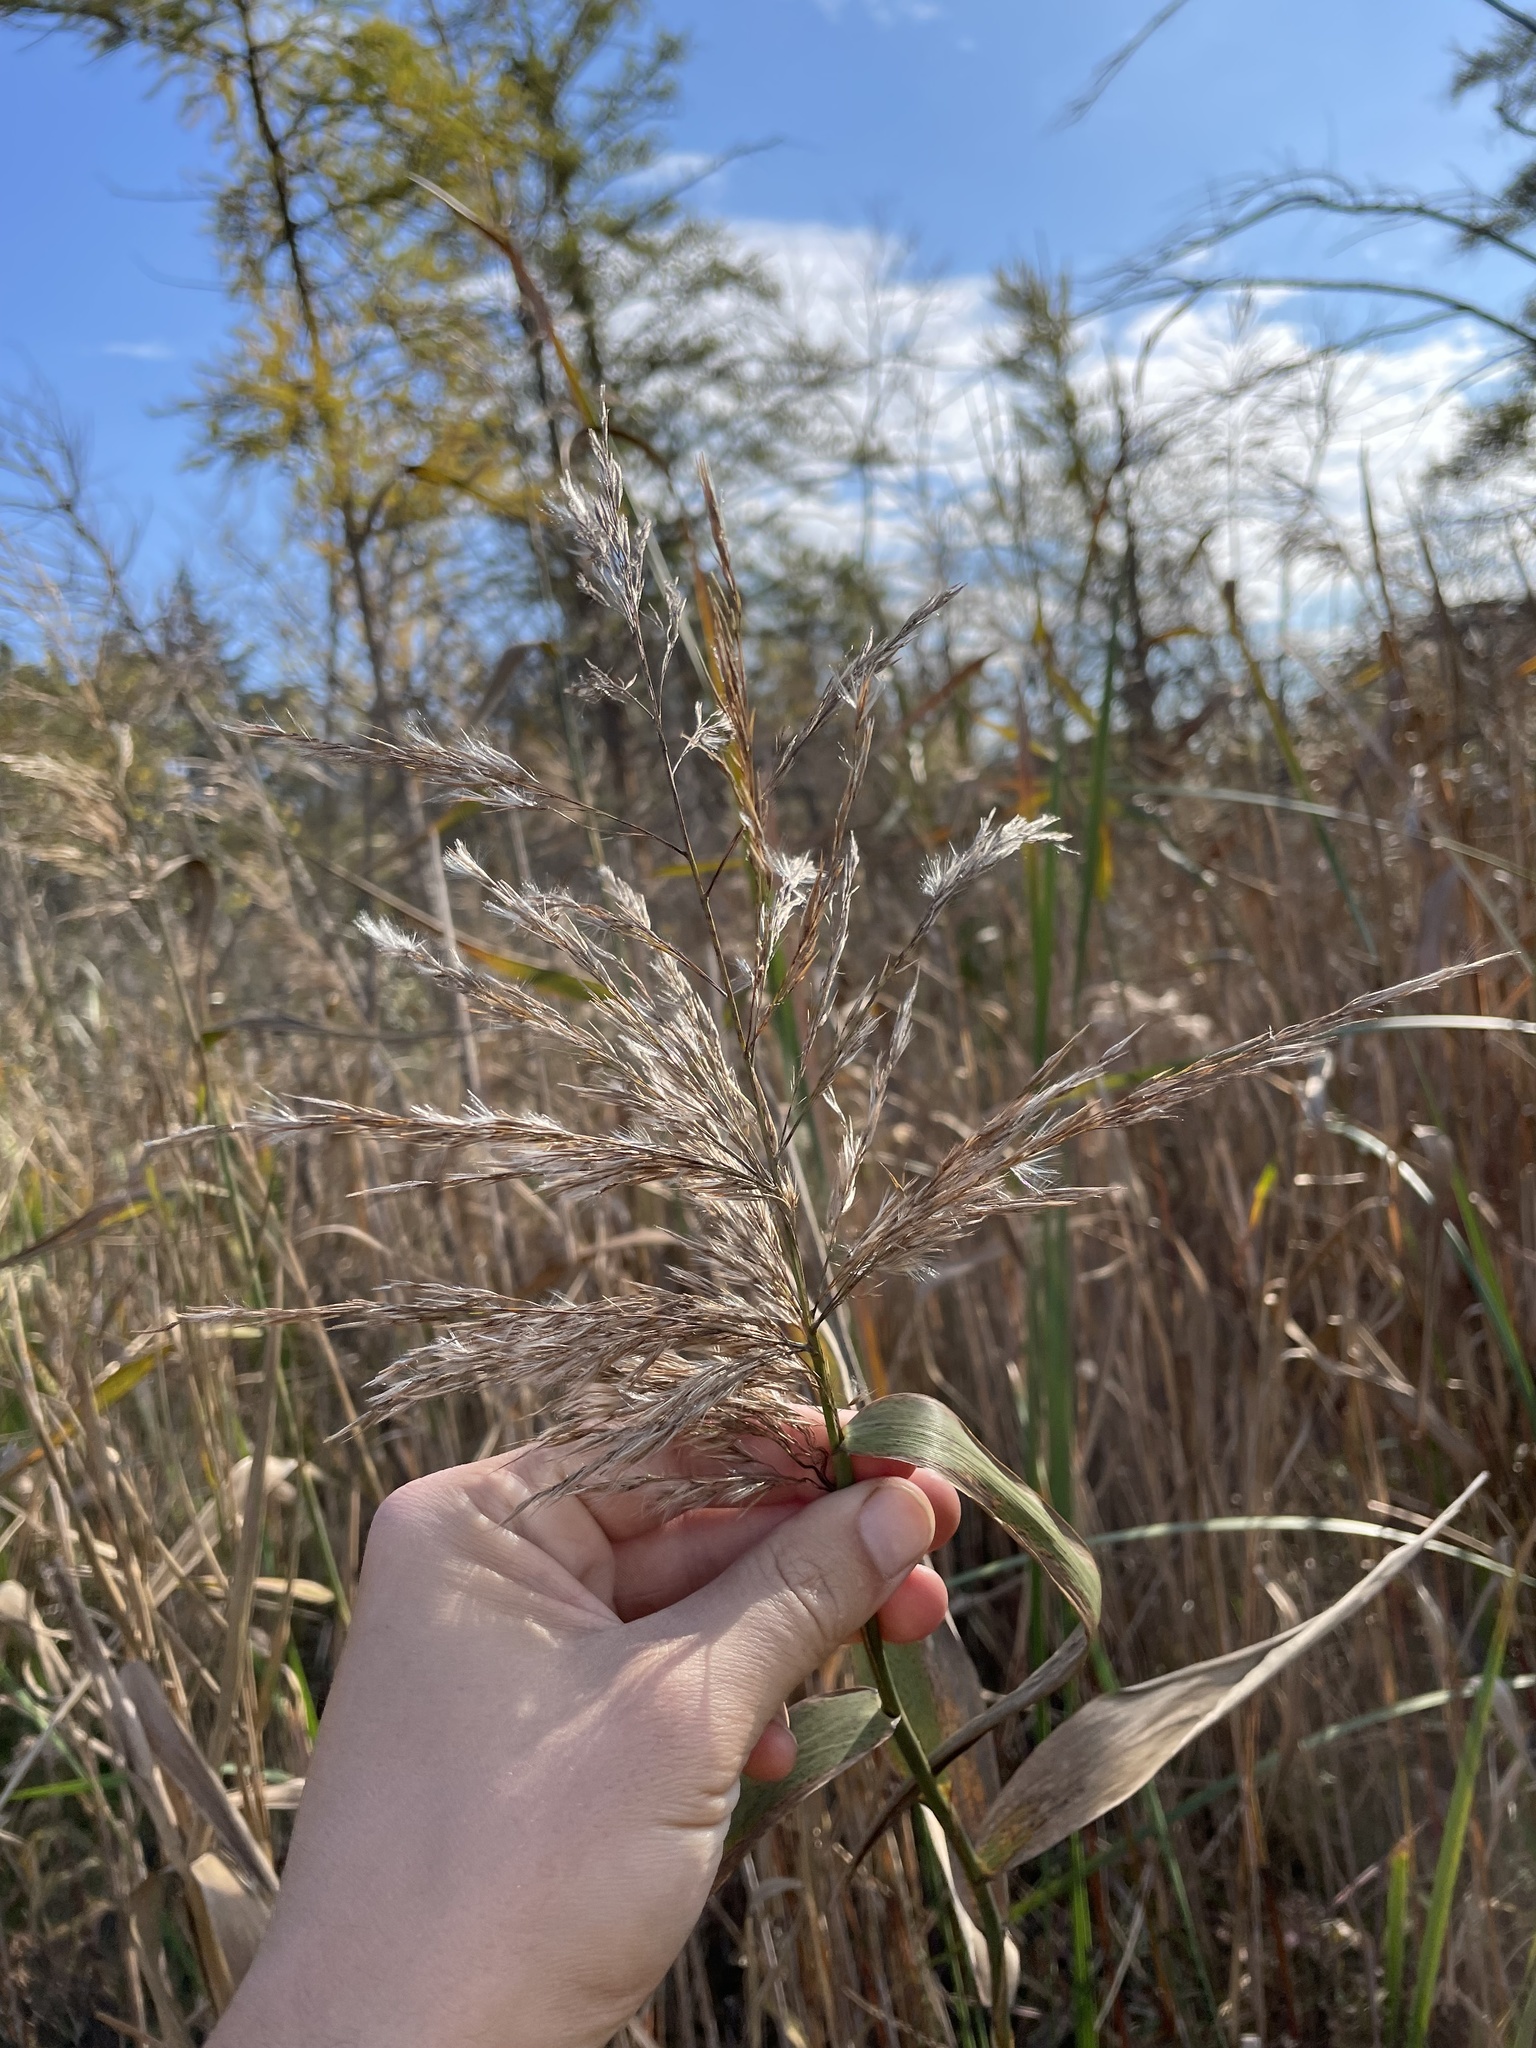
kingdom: Plantae
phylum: Tracheophyta
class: Liliopsida
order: Poales
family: Poaceae
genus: Phragmites
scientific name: Phragmites australis
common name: Common reed
